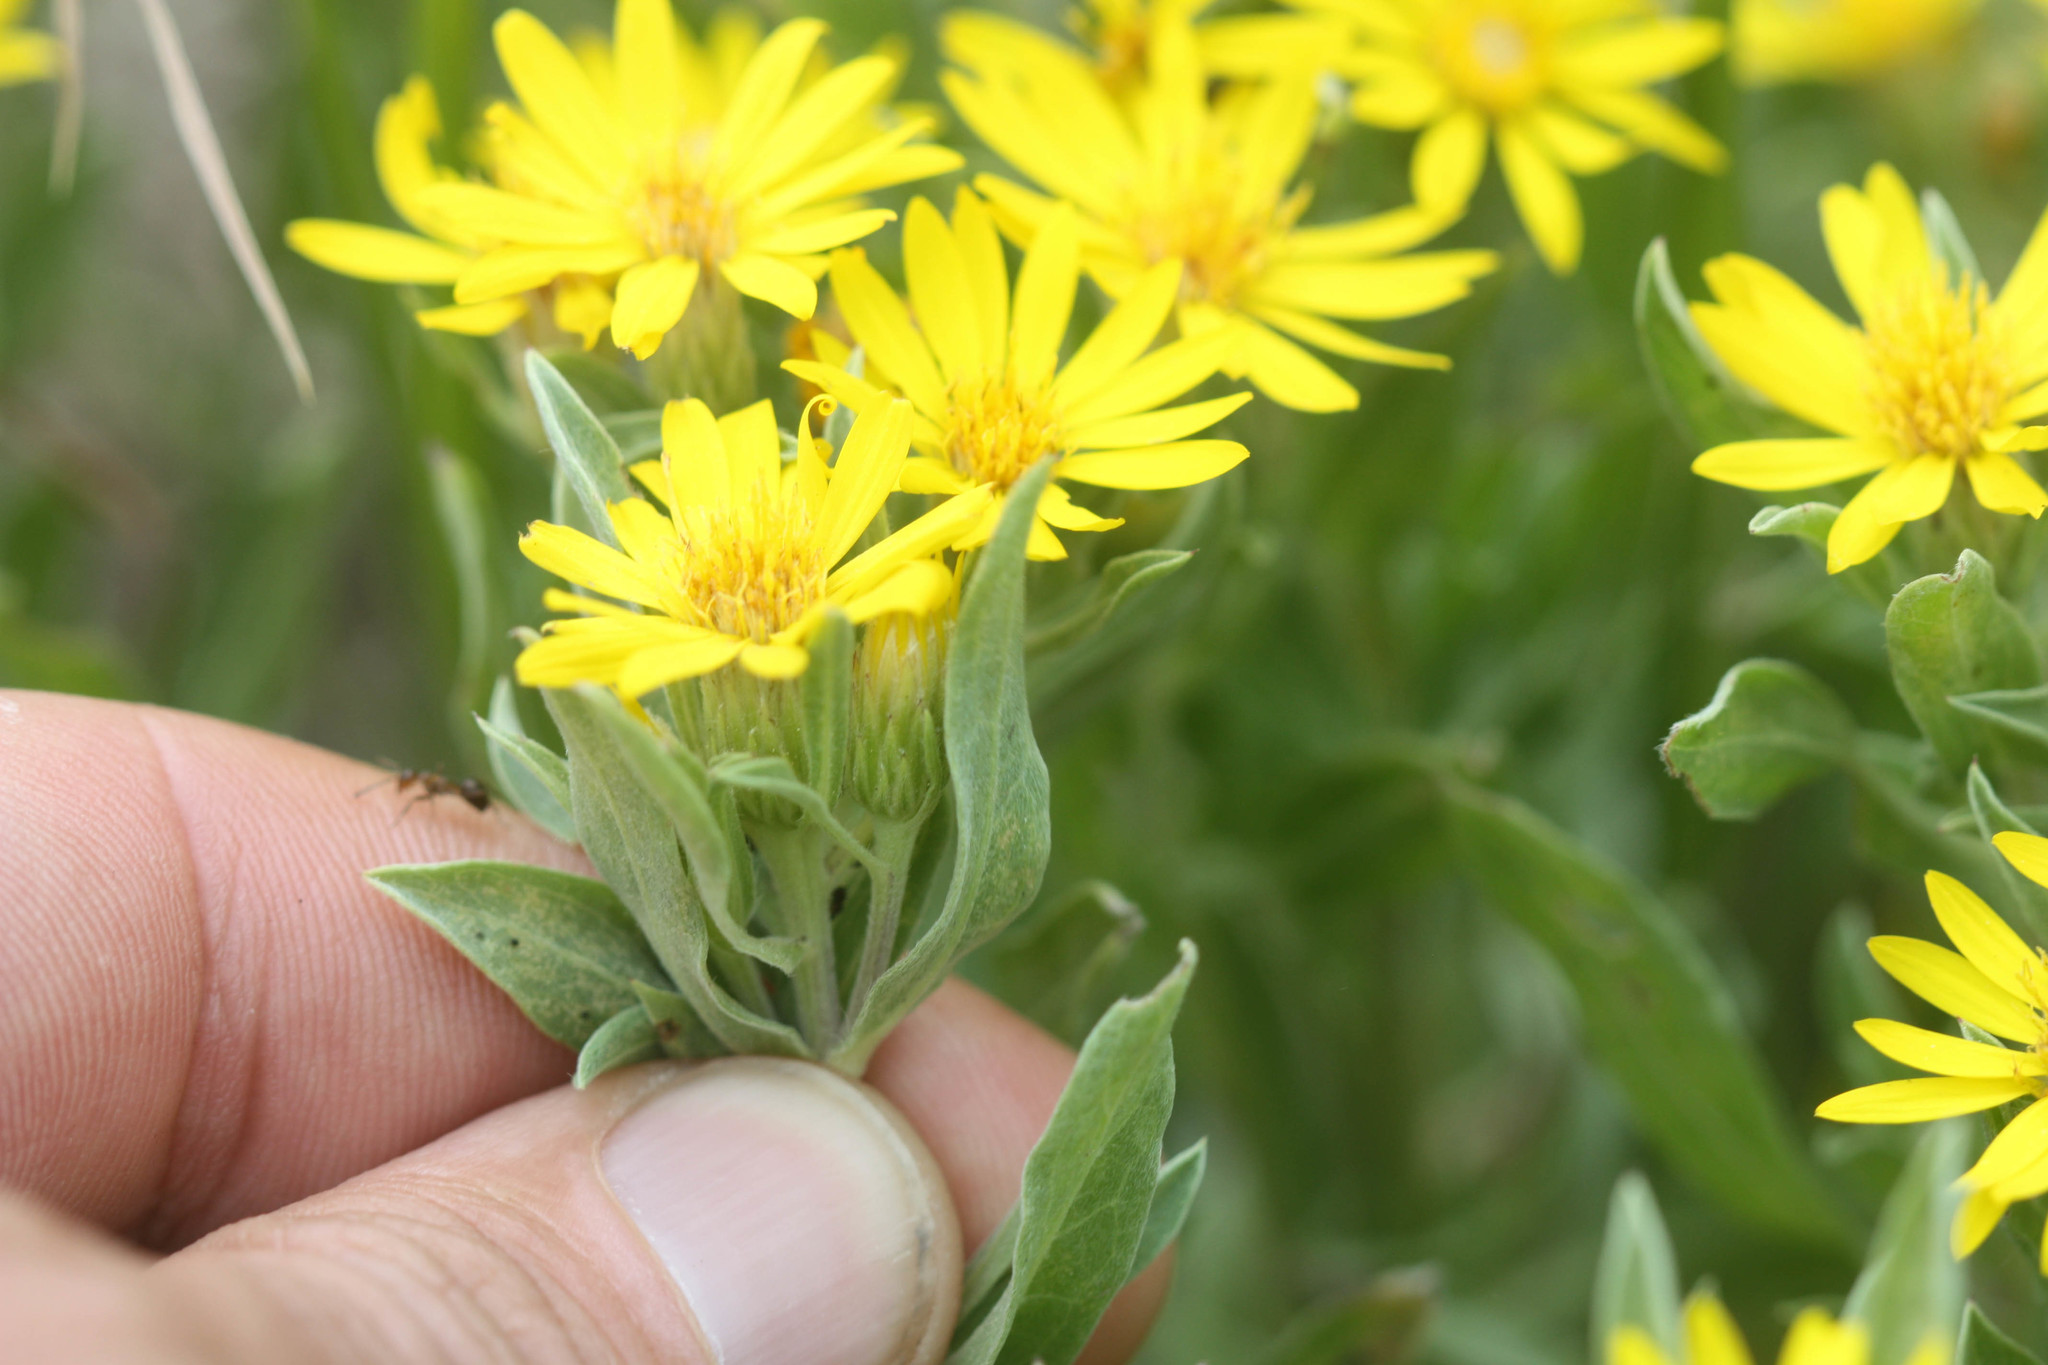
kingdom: Plantae
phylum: Tracheophyta
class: Magnoliopsida
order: Asterales
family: Asteraceae
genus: Heterotheca
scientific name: Heterotheca hartmanii
